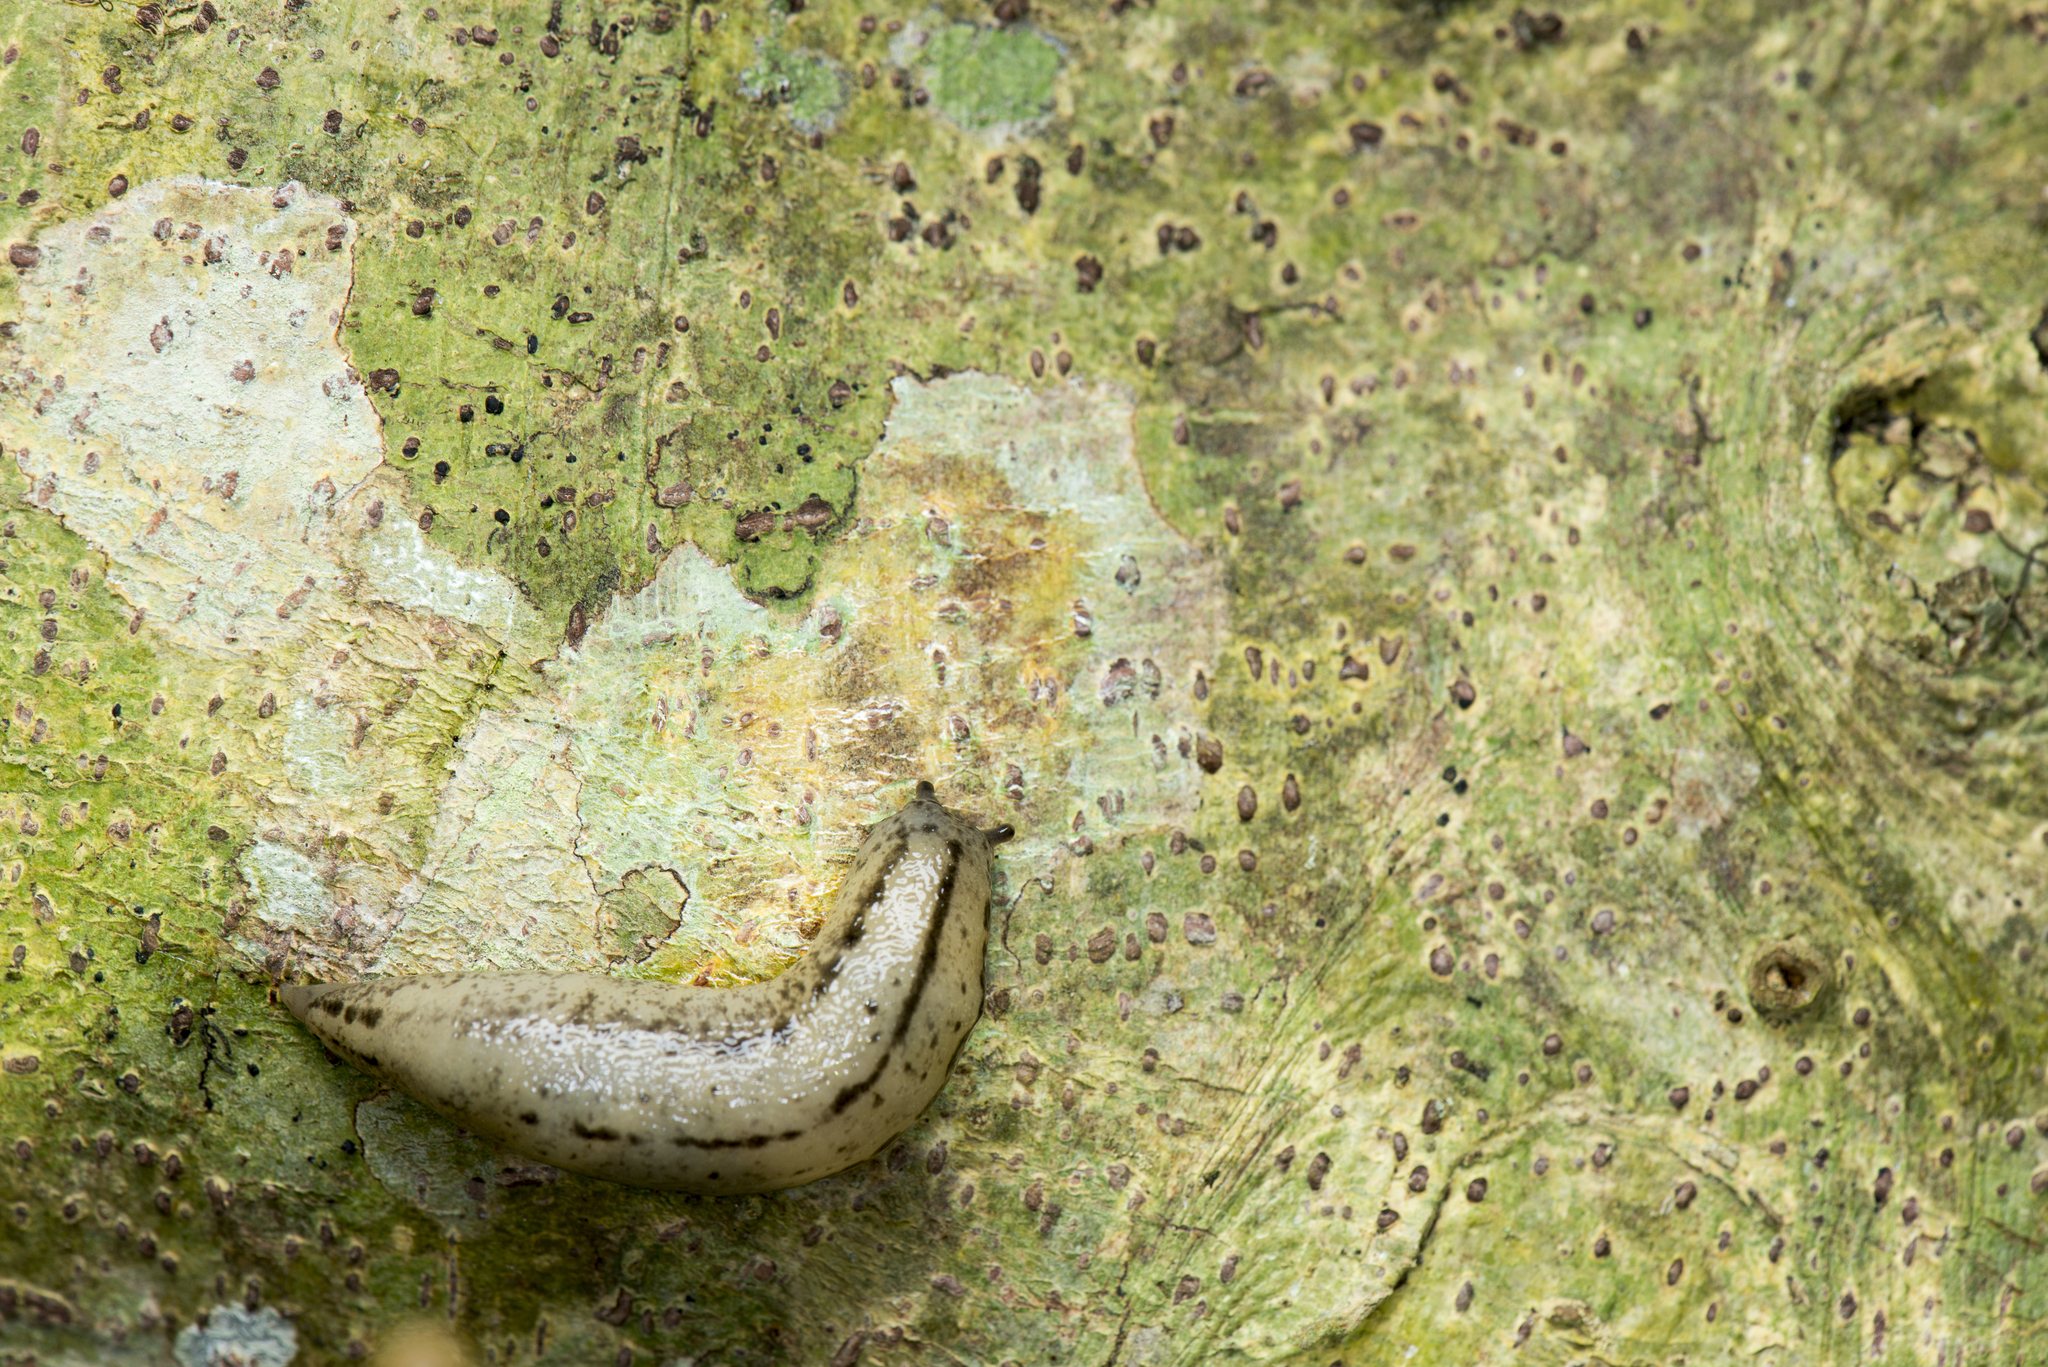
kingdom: Animalia
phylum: Mollusca
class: Gastropoda
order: Stylommatophora
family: Philomycidae
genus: Meghimatium
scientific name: Meghimatium bilineatum
